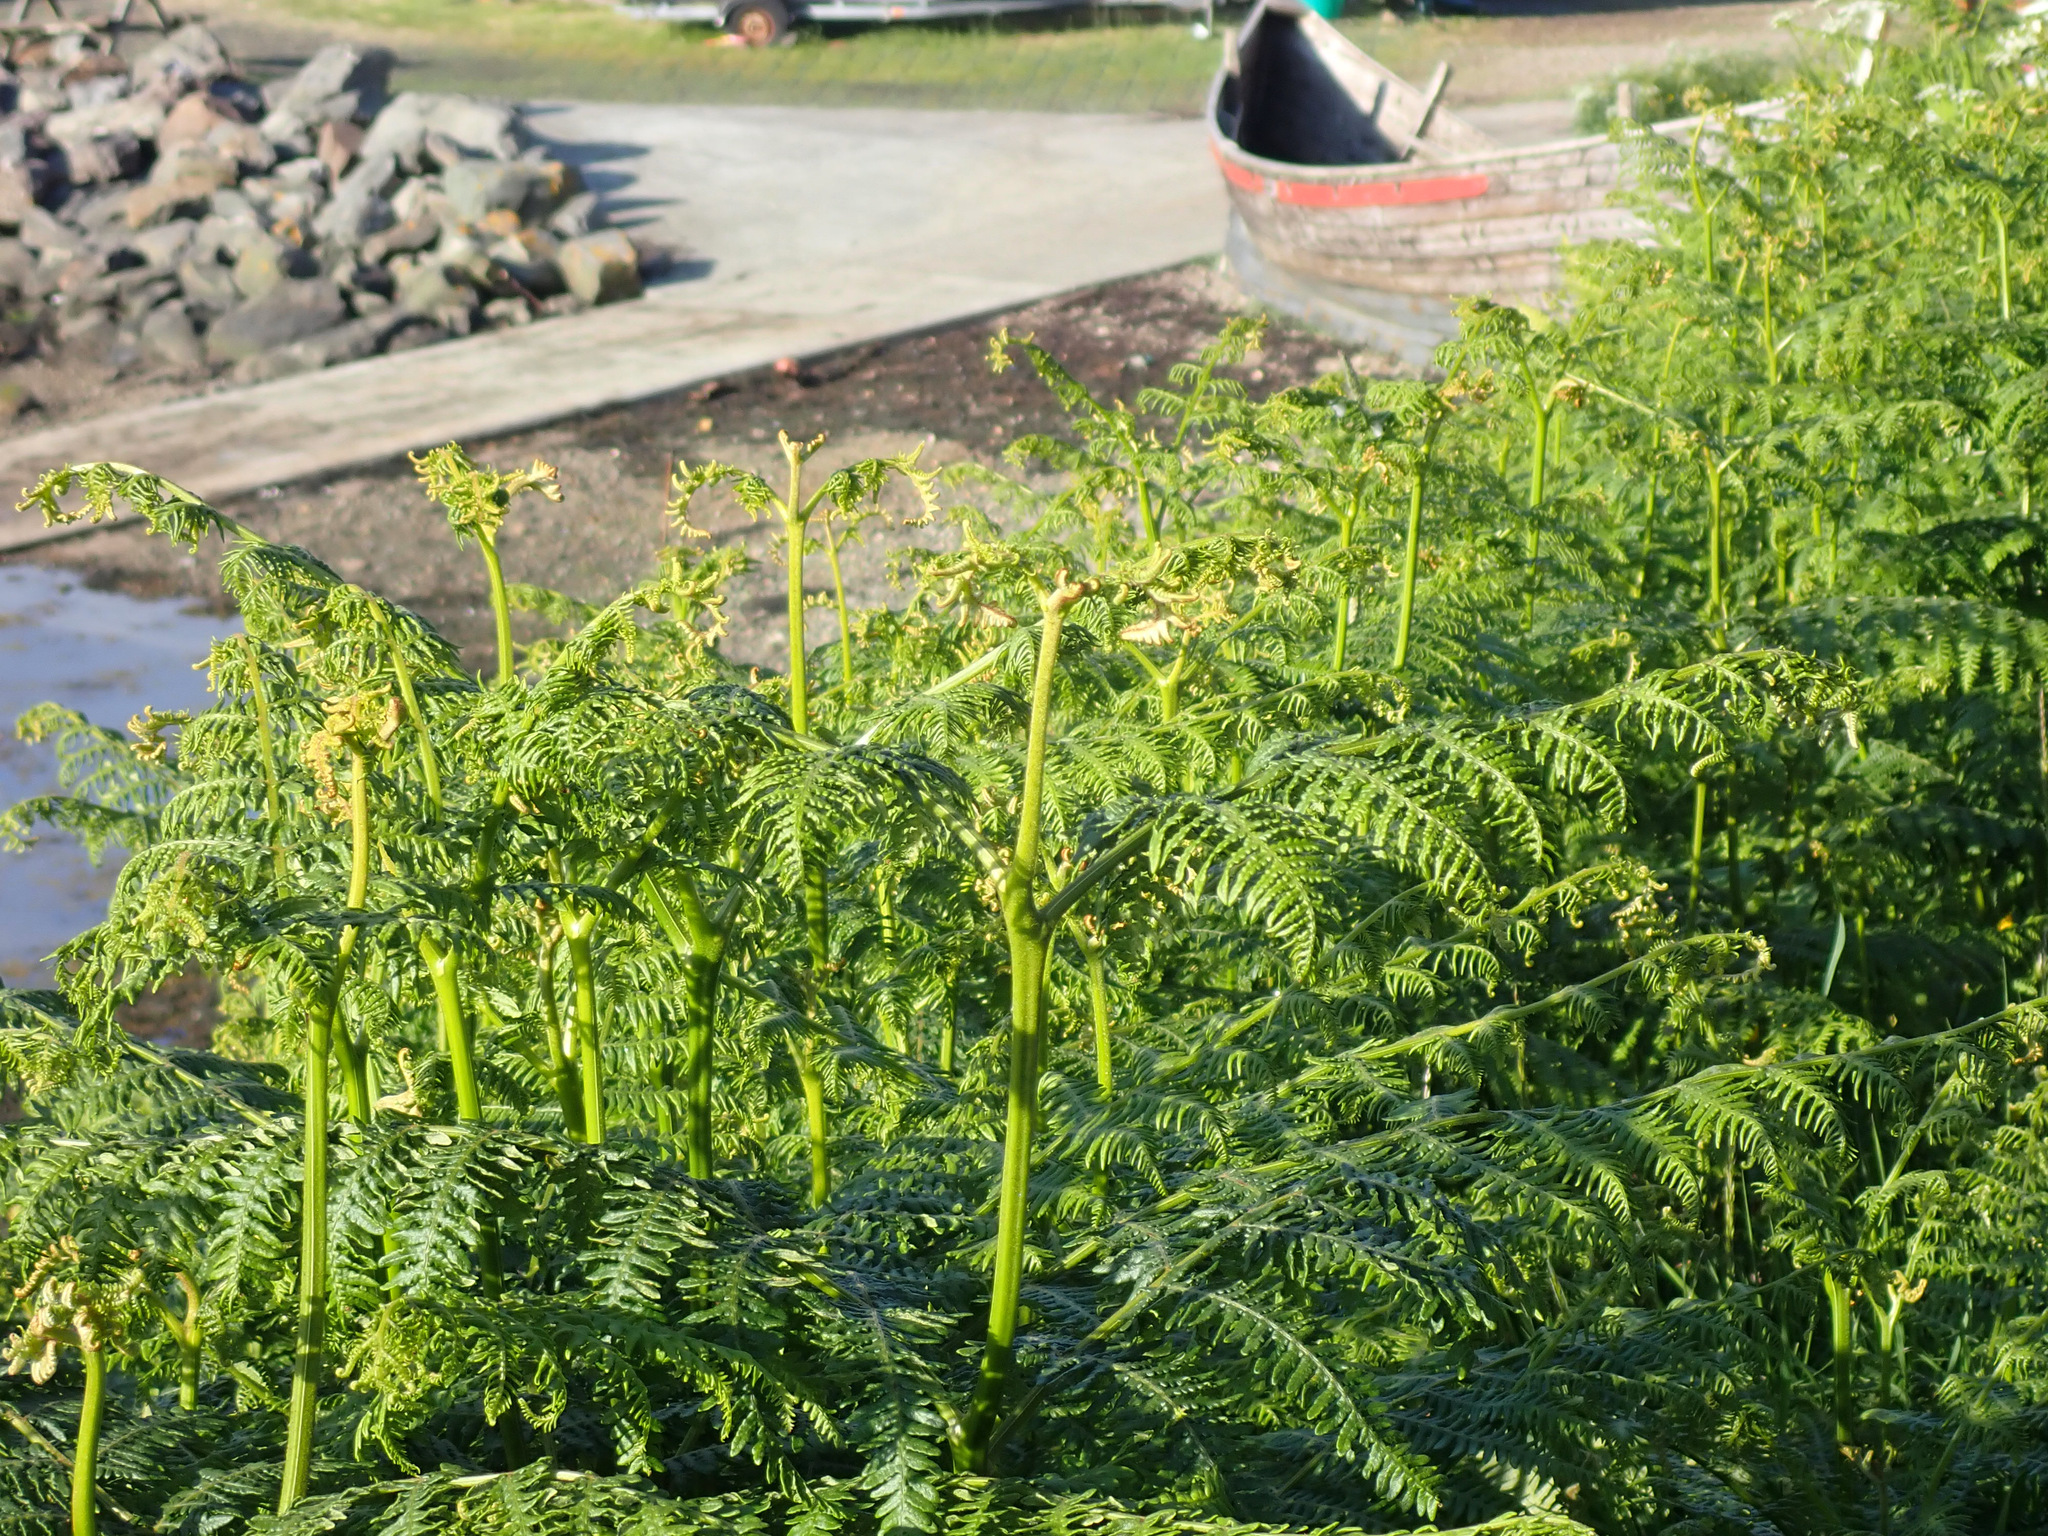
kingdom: Plantae
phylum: Tracheophyta
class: Polypodiopsida
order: Polypodiales
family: Dennstaedtiaceae
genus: Pteridium
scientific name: Pteridium aquilinum
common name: Bracken
